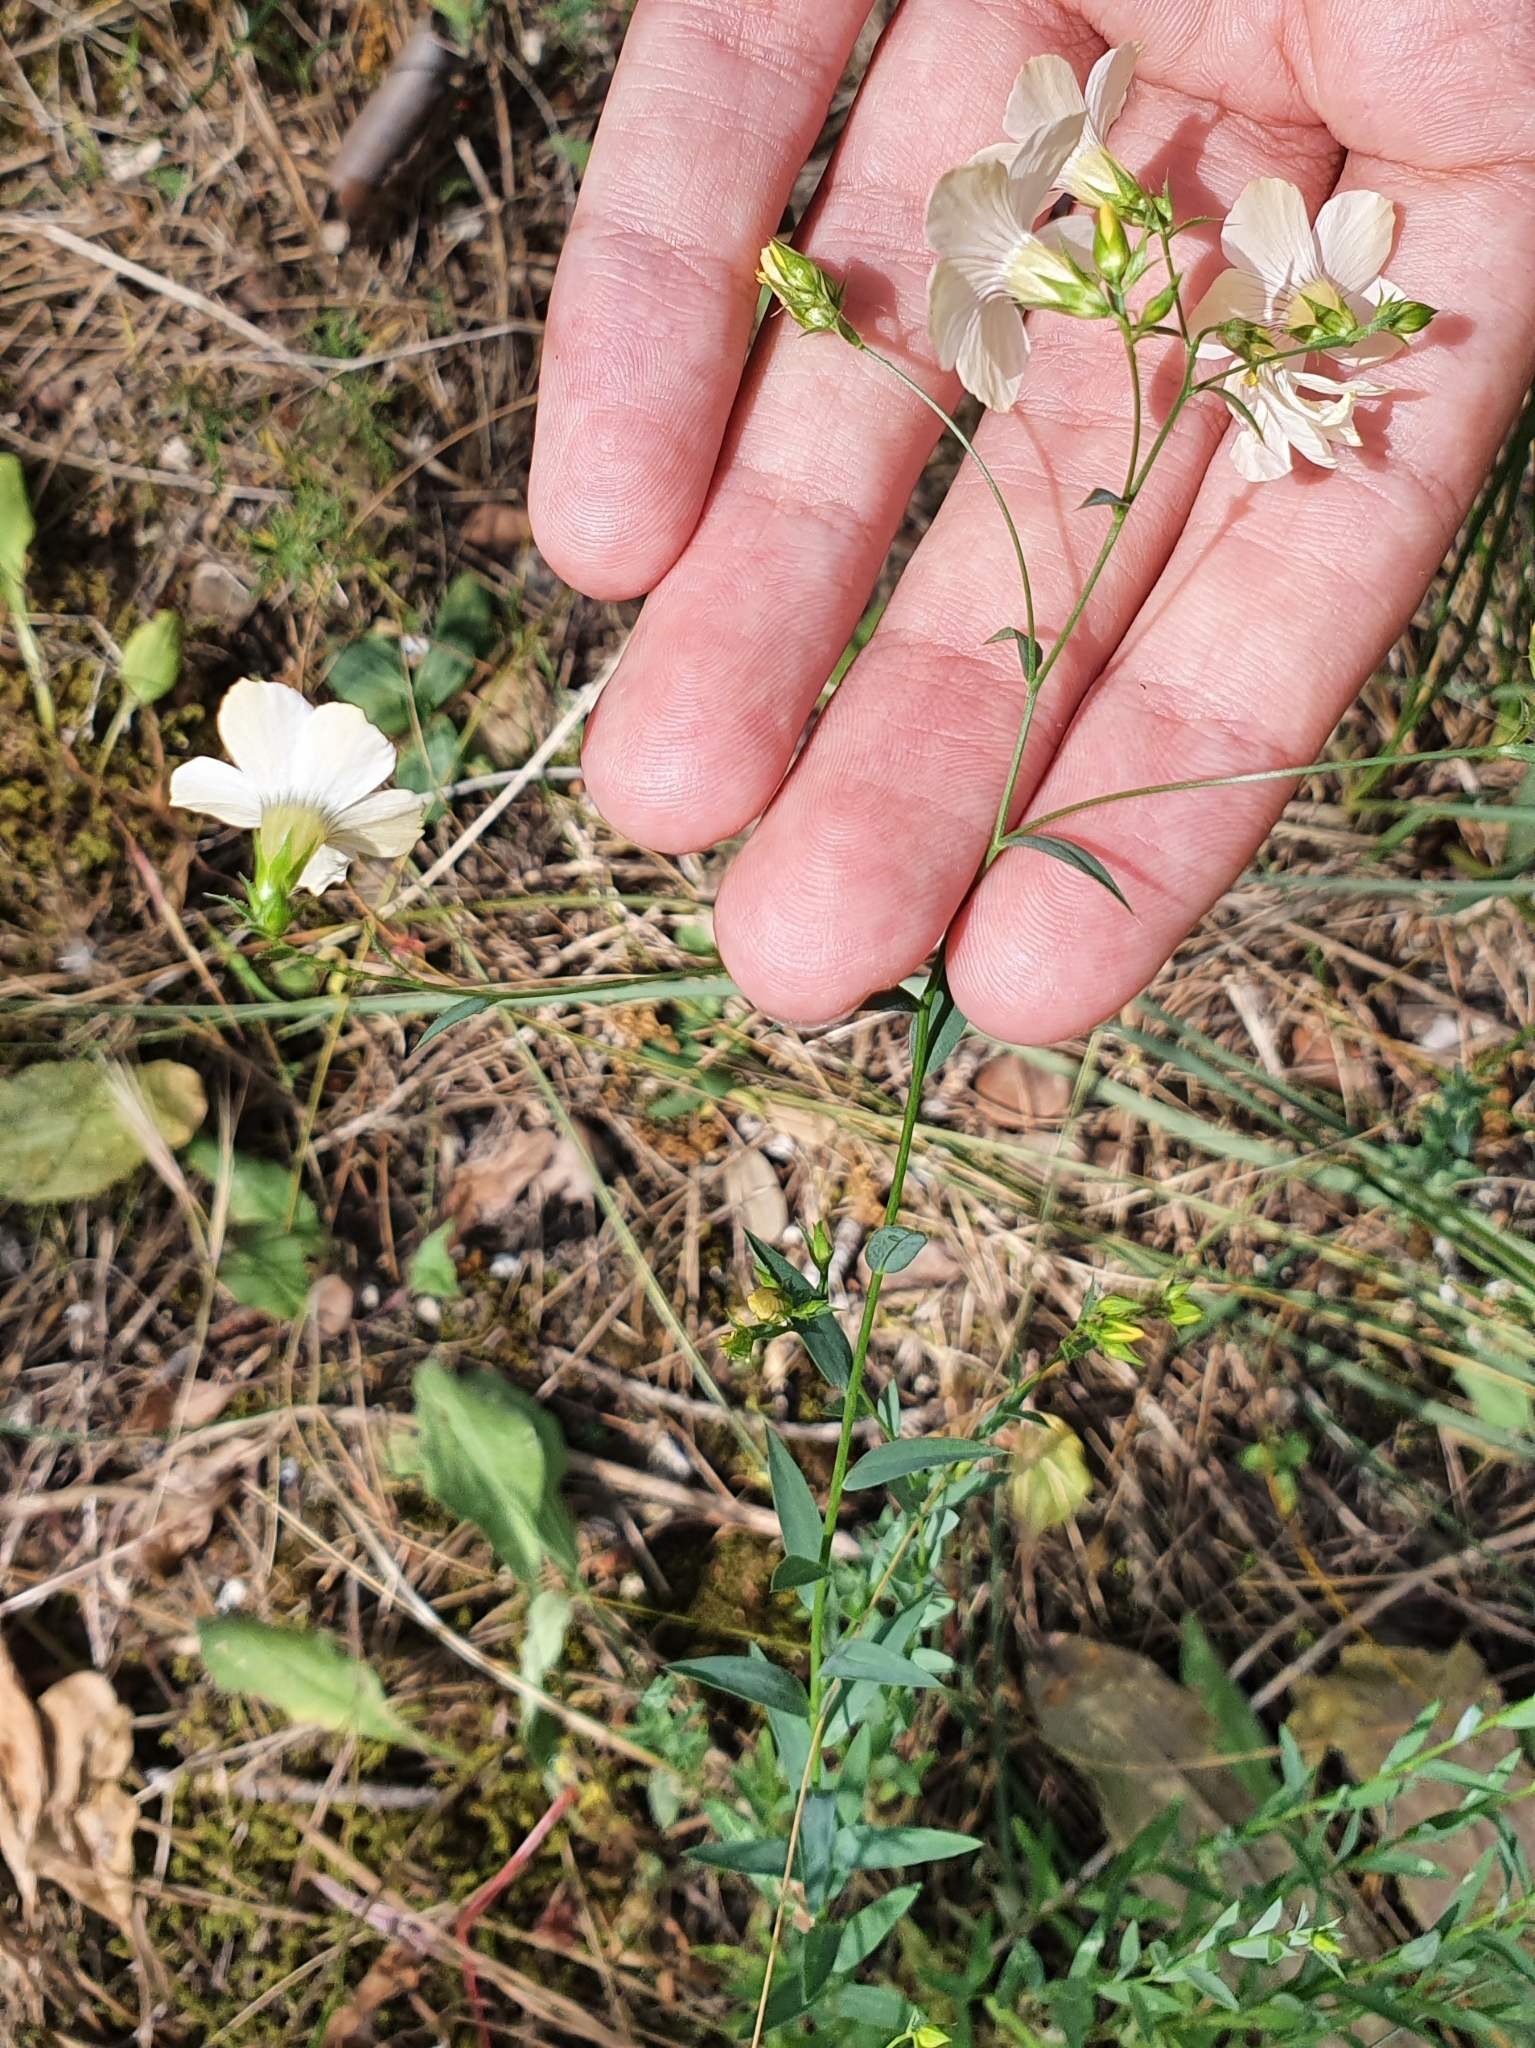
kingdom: Plantae
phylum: Tracheophyta
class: Magnoliopsida
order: Malpighiales
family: Linaceae
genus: Linum
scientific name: Linum corymbiferum
